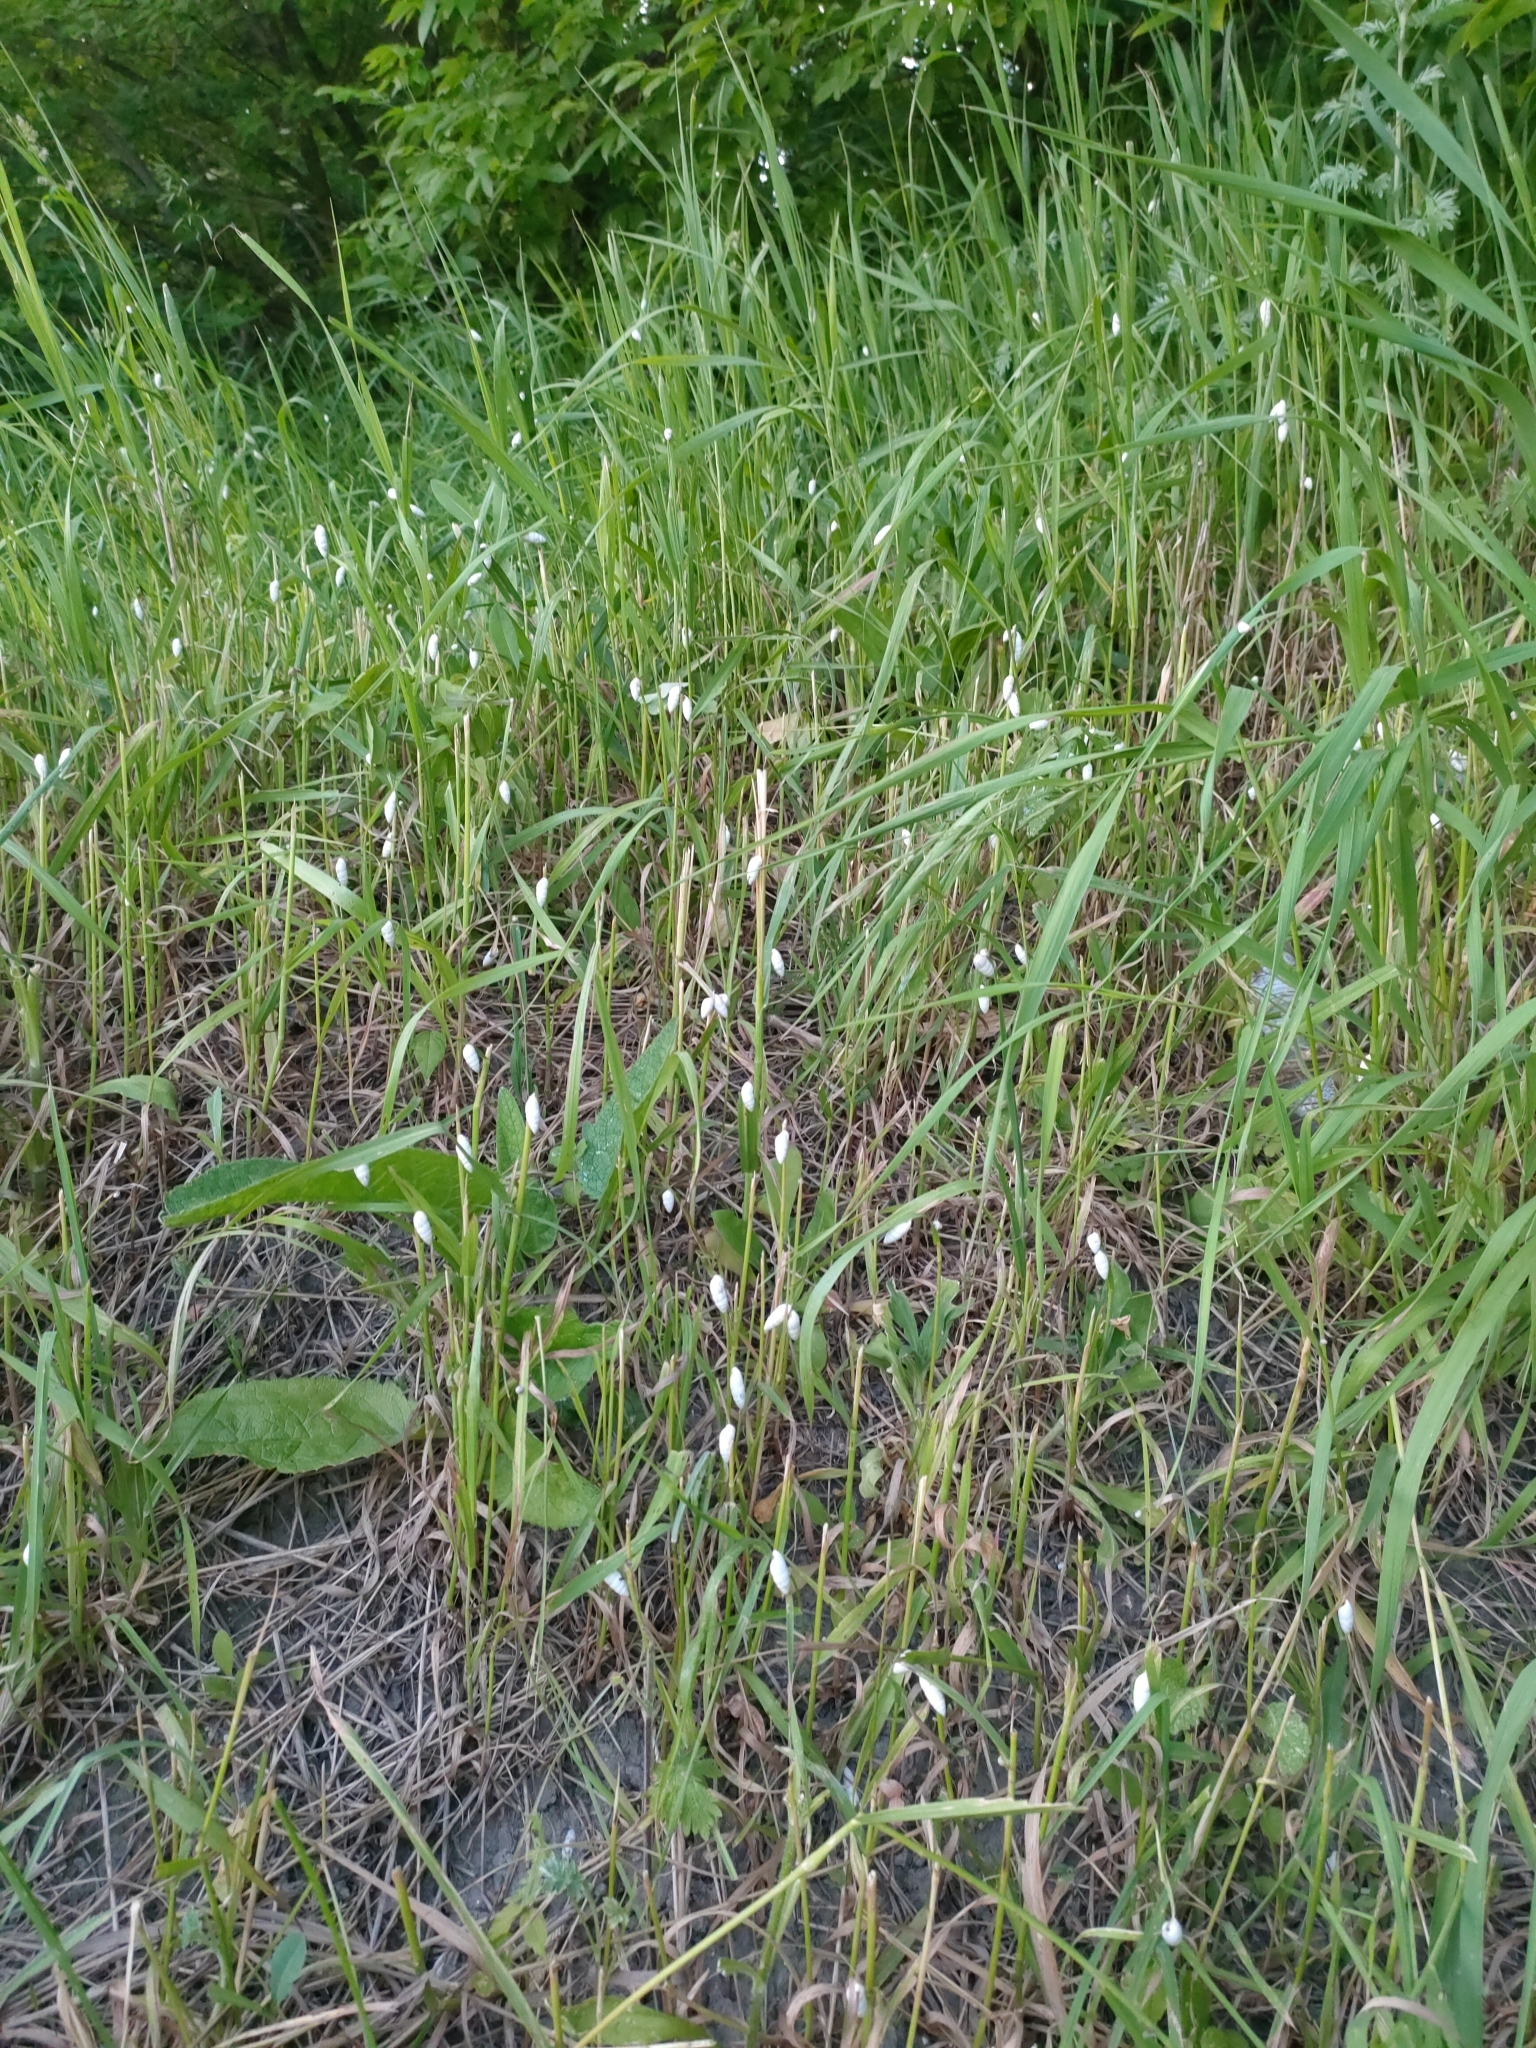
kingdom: Animalia
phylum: Mollusca
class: Gastropoda
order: Stylommatophora
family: Enidae
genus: Brephulopsis
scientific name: Brephulopsis cylindrica
